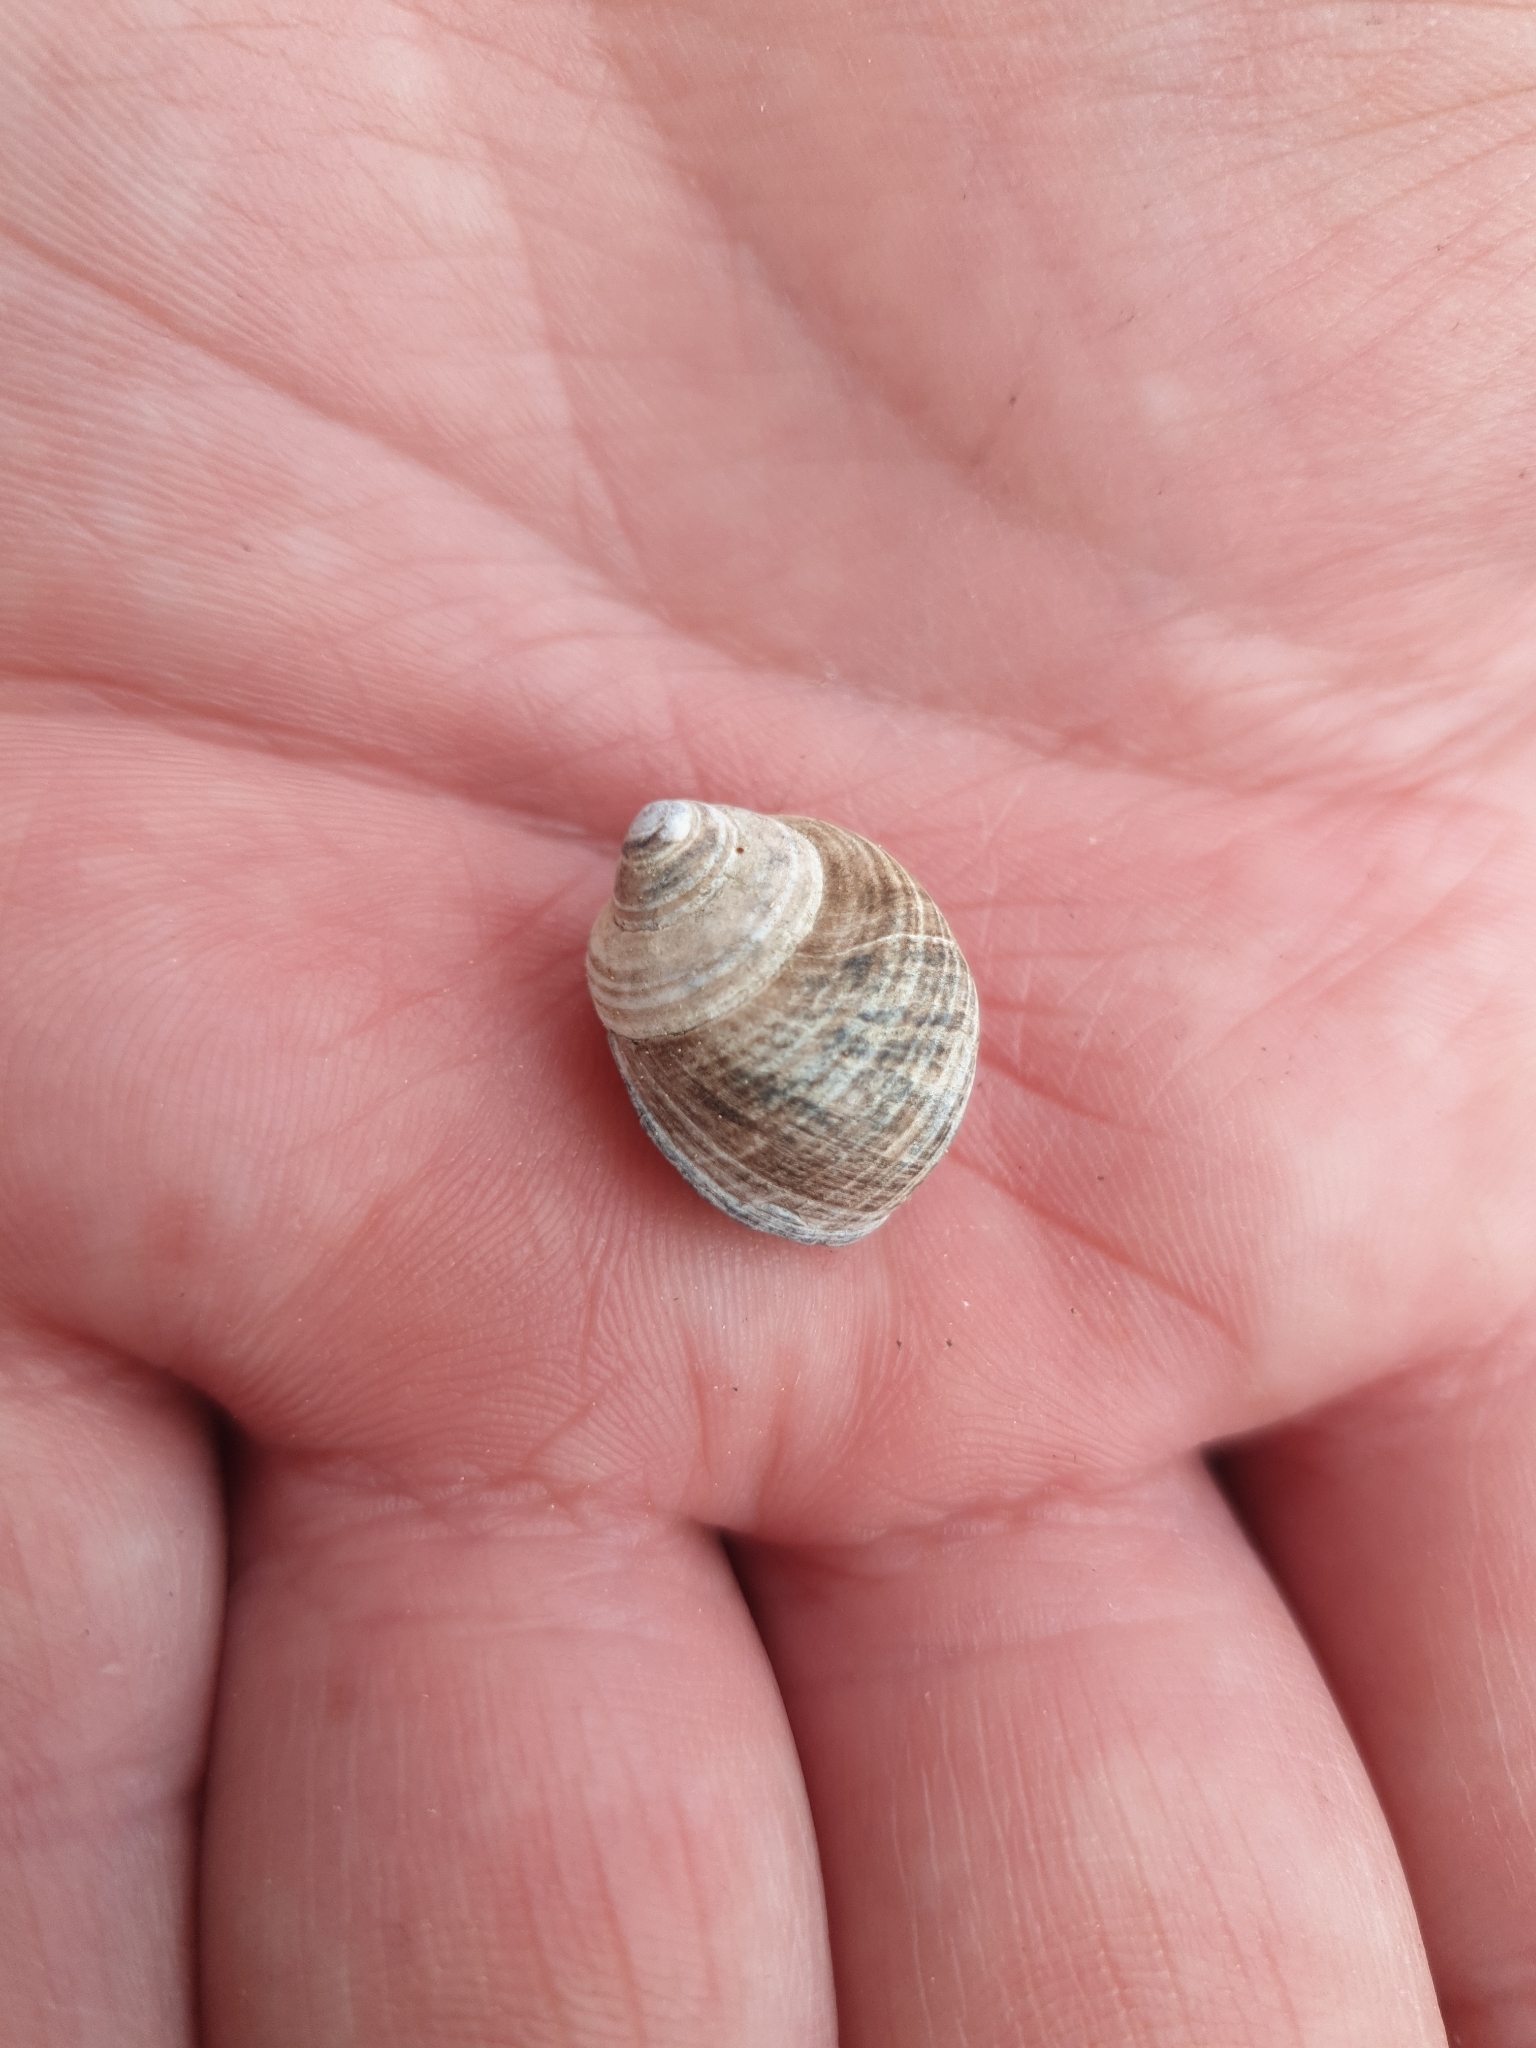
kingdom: Animalia
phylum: Mollusca
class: Gastropoda
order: Littorinimorpha
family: Littorinidae
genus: Littorina
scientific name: Littorina littorea
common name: Common periwinkle
